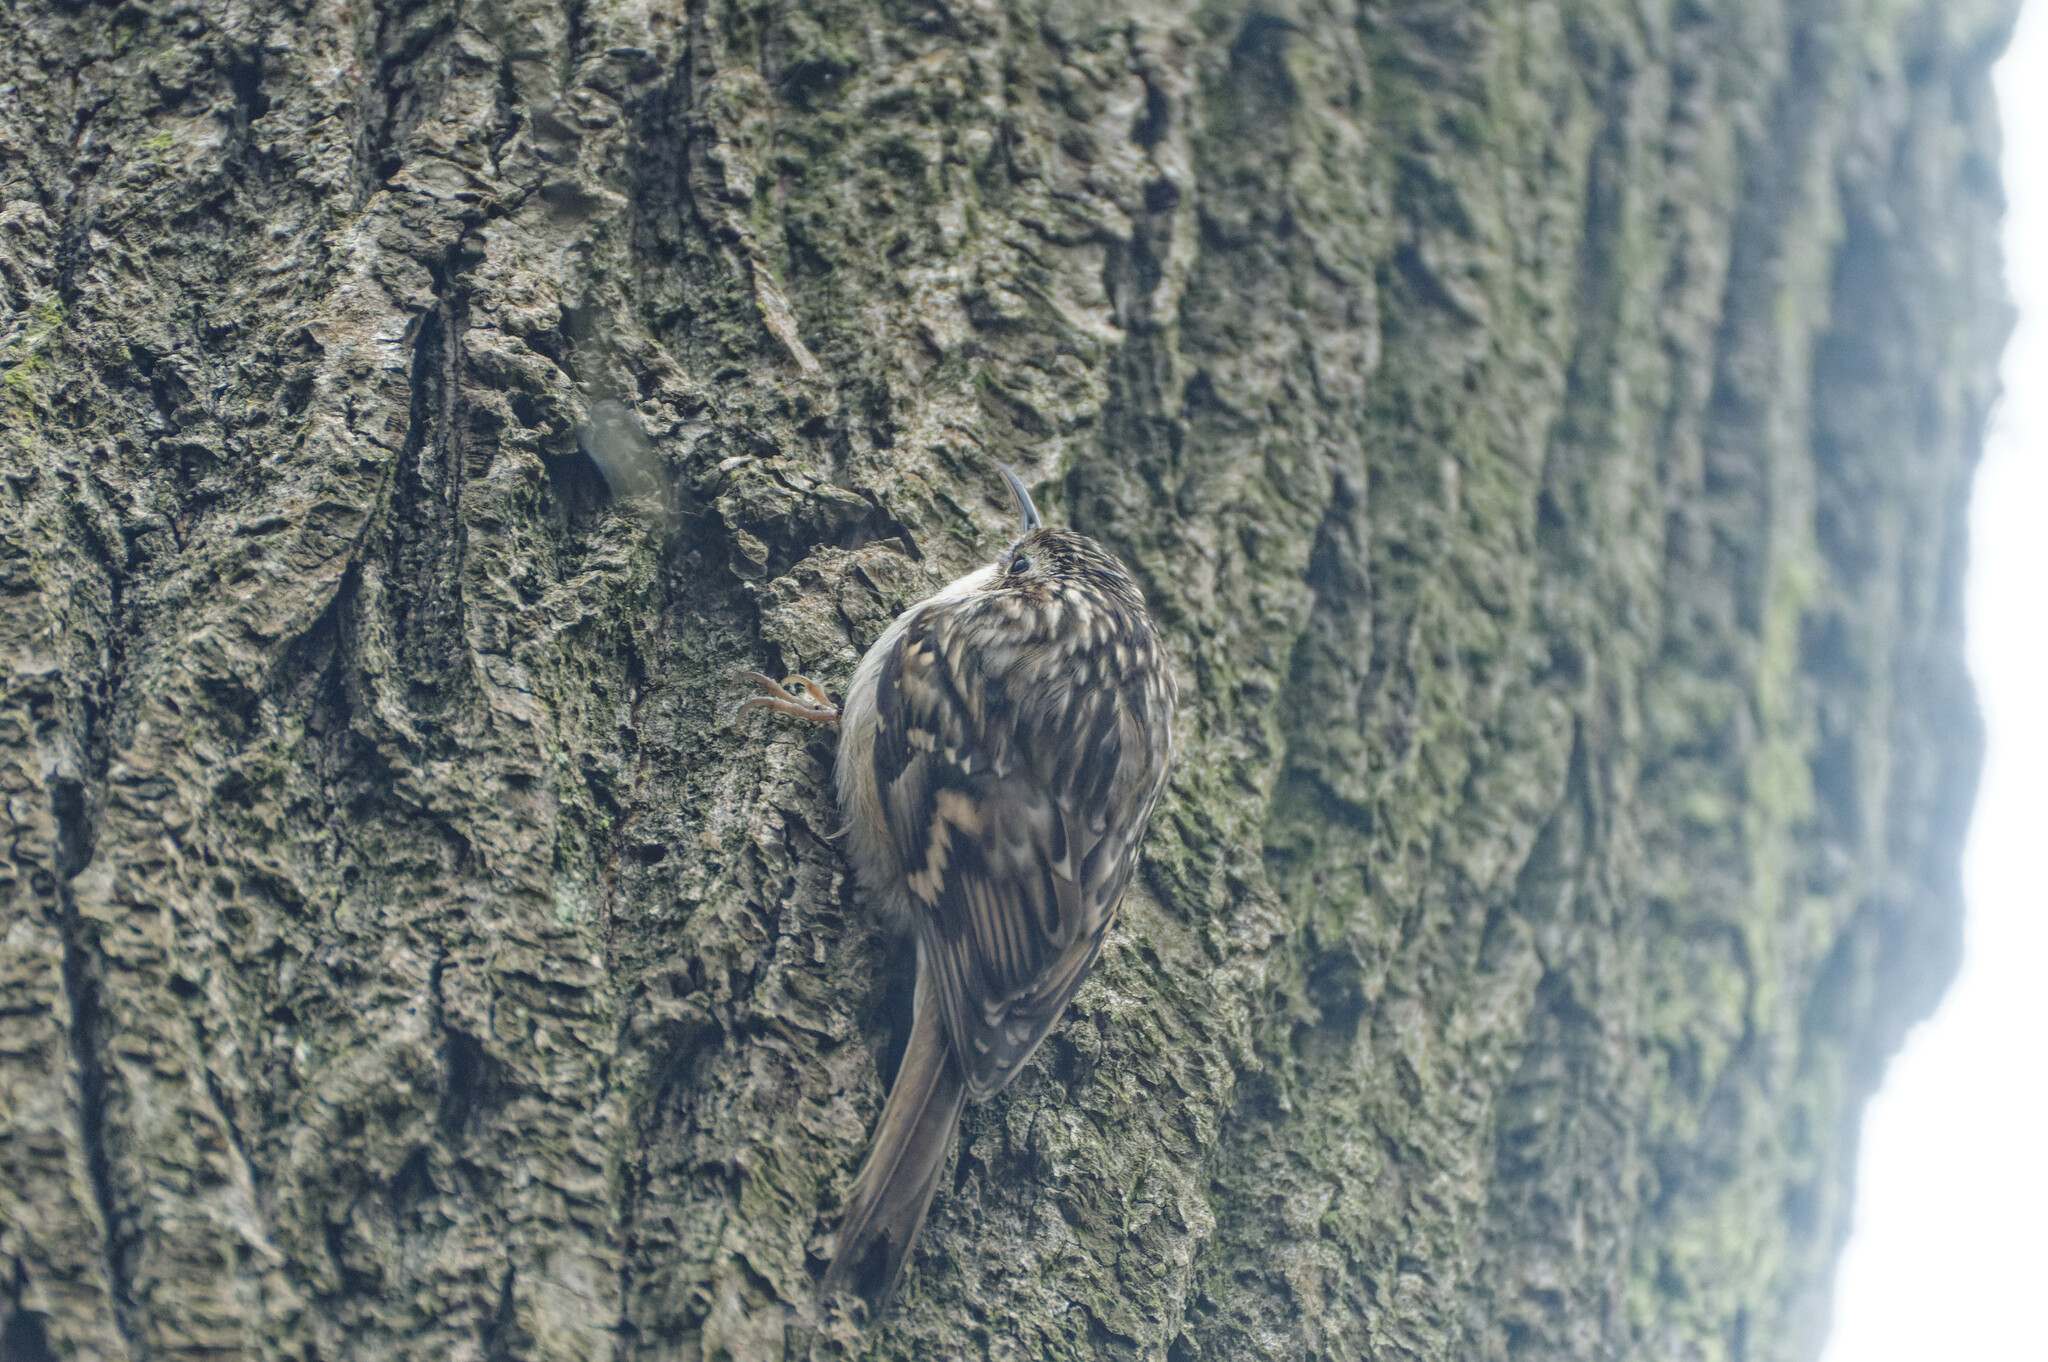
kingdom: Animalia
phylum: Chordata
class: Aves
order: Passeriformes
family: Certhiidae
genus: Certhia
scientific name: Certhia brachydactyla
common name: Short-toed treecreeper
